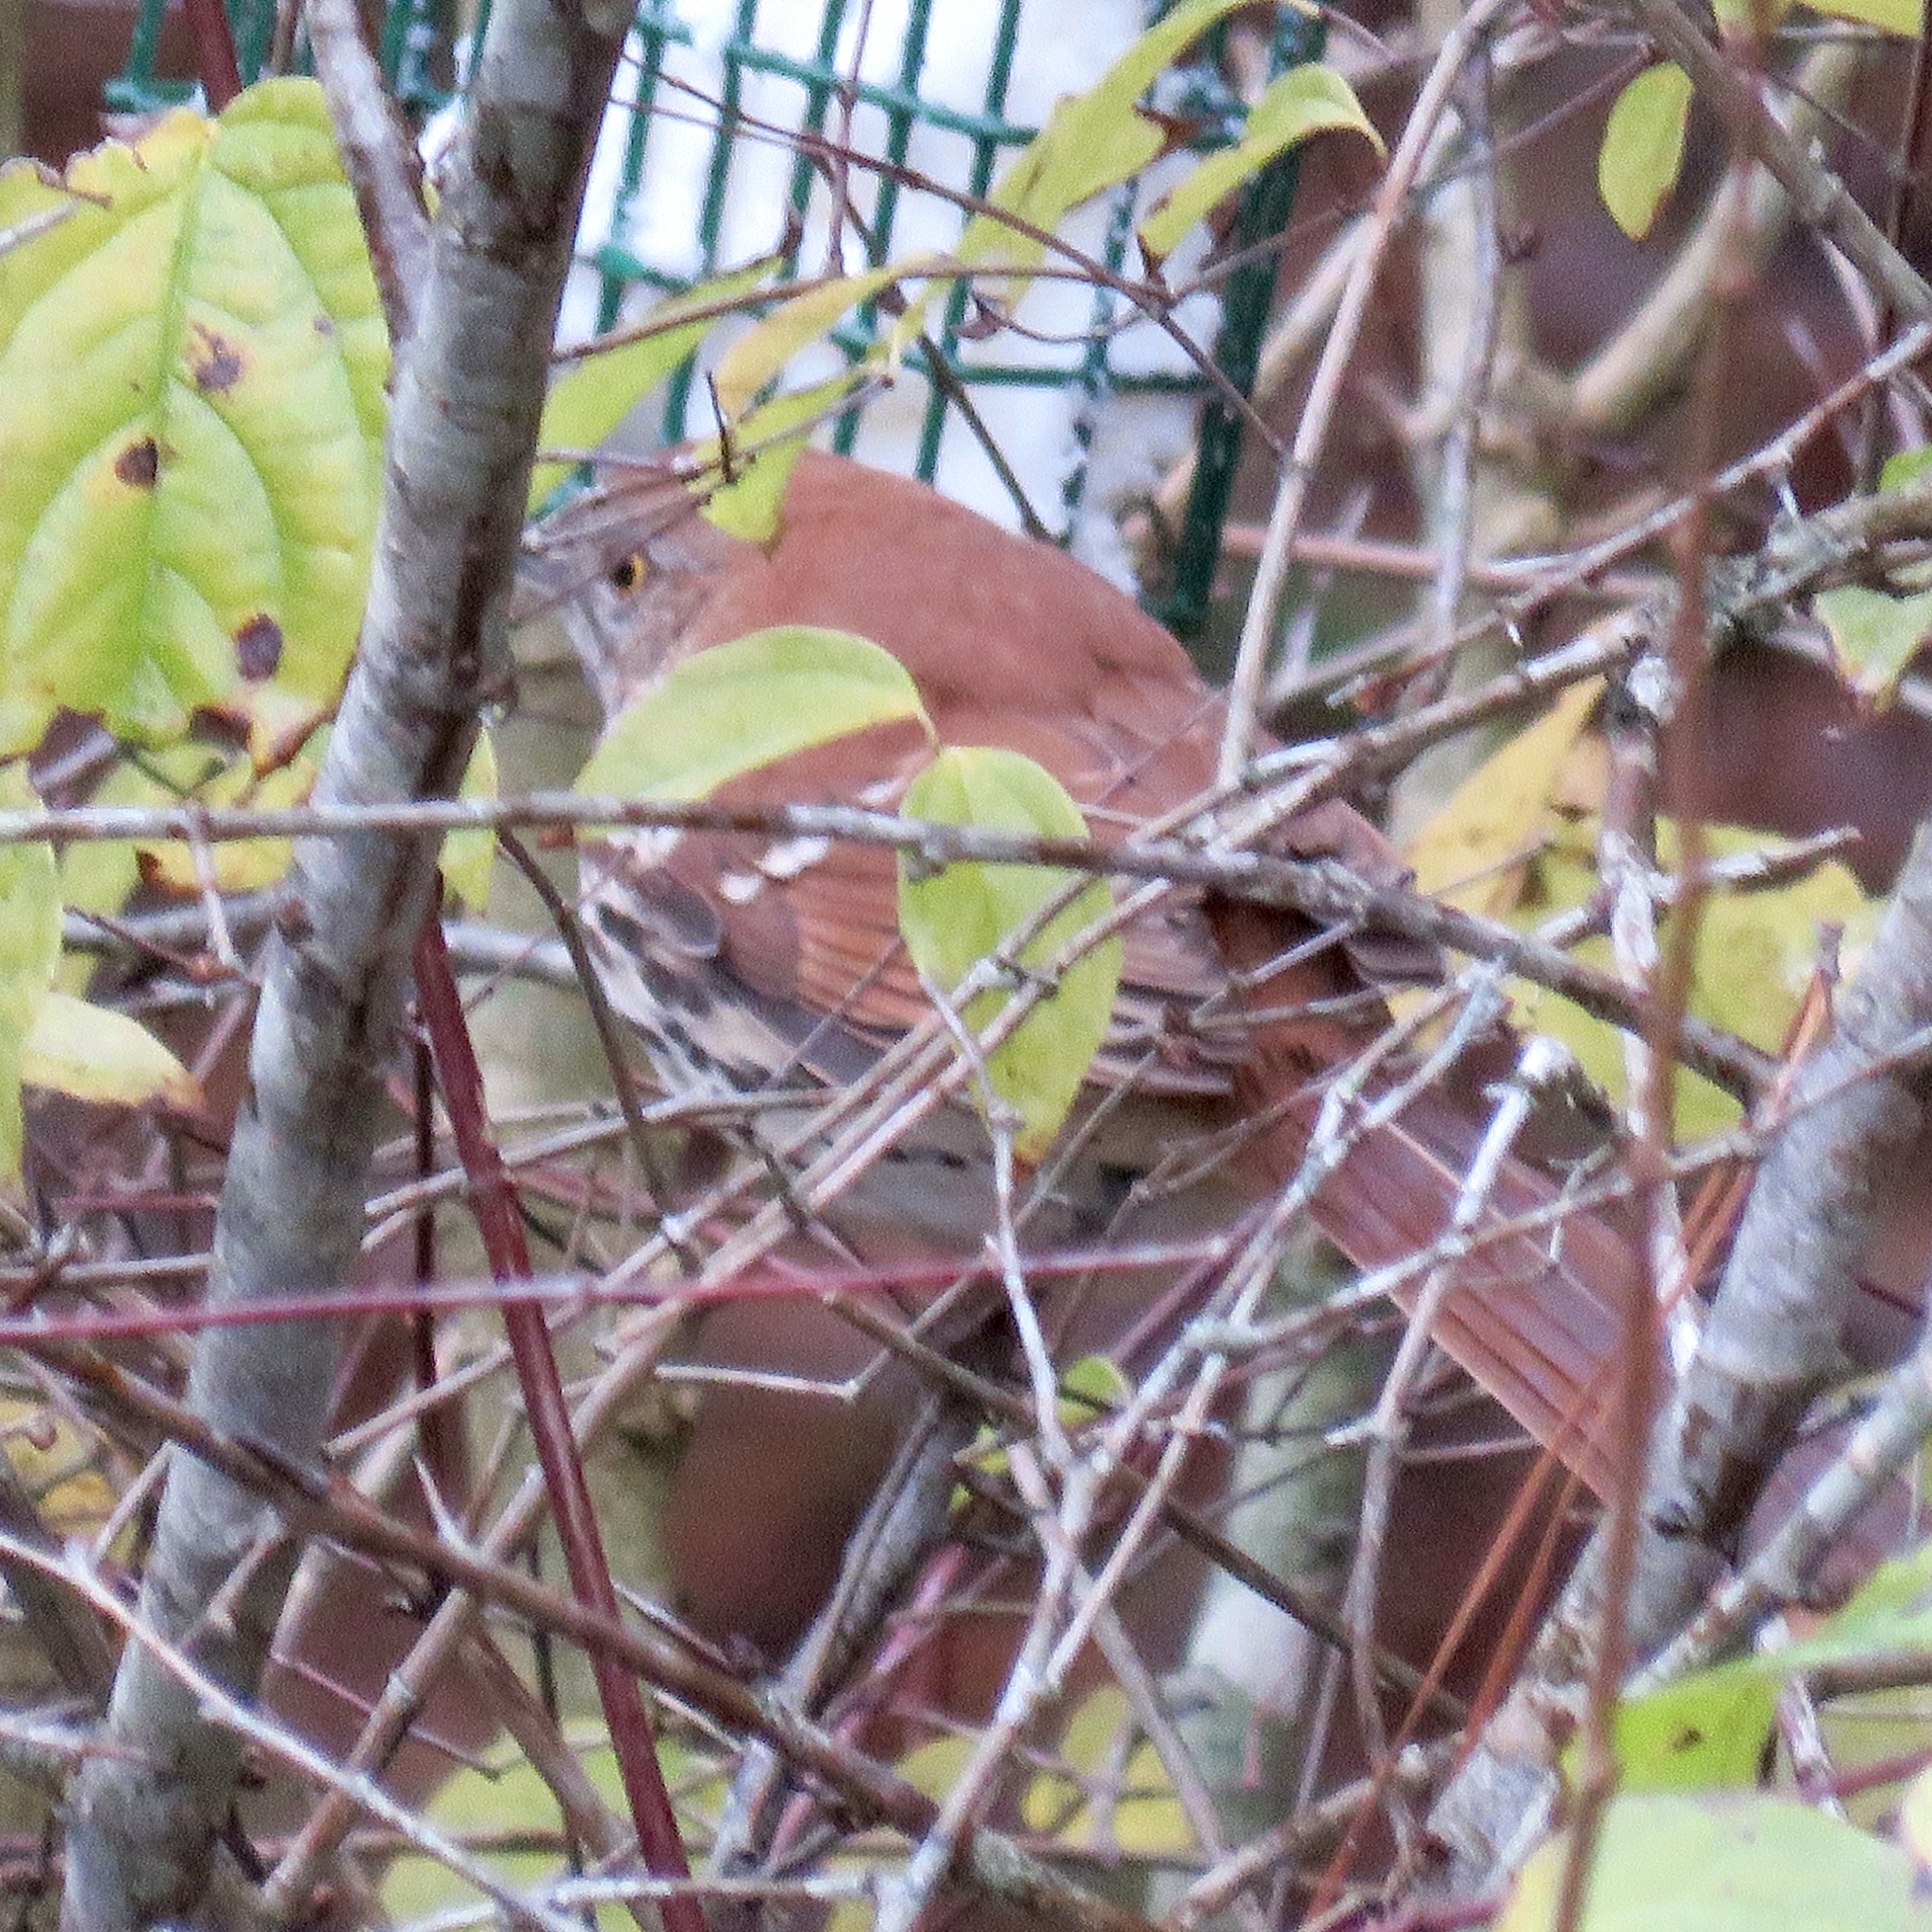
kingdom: Animalia
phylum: Chordata
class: Aves
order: Passeriformes
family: Mimidae
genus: Toxostoma
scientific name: Toxostoma rufum
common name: Brown thrasher
